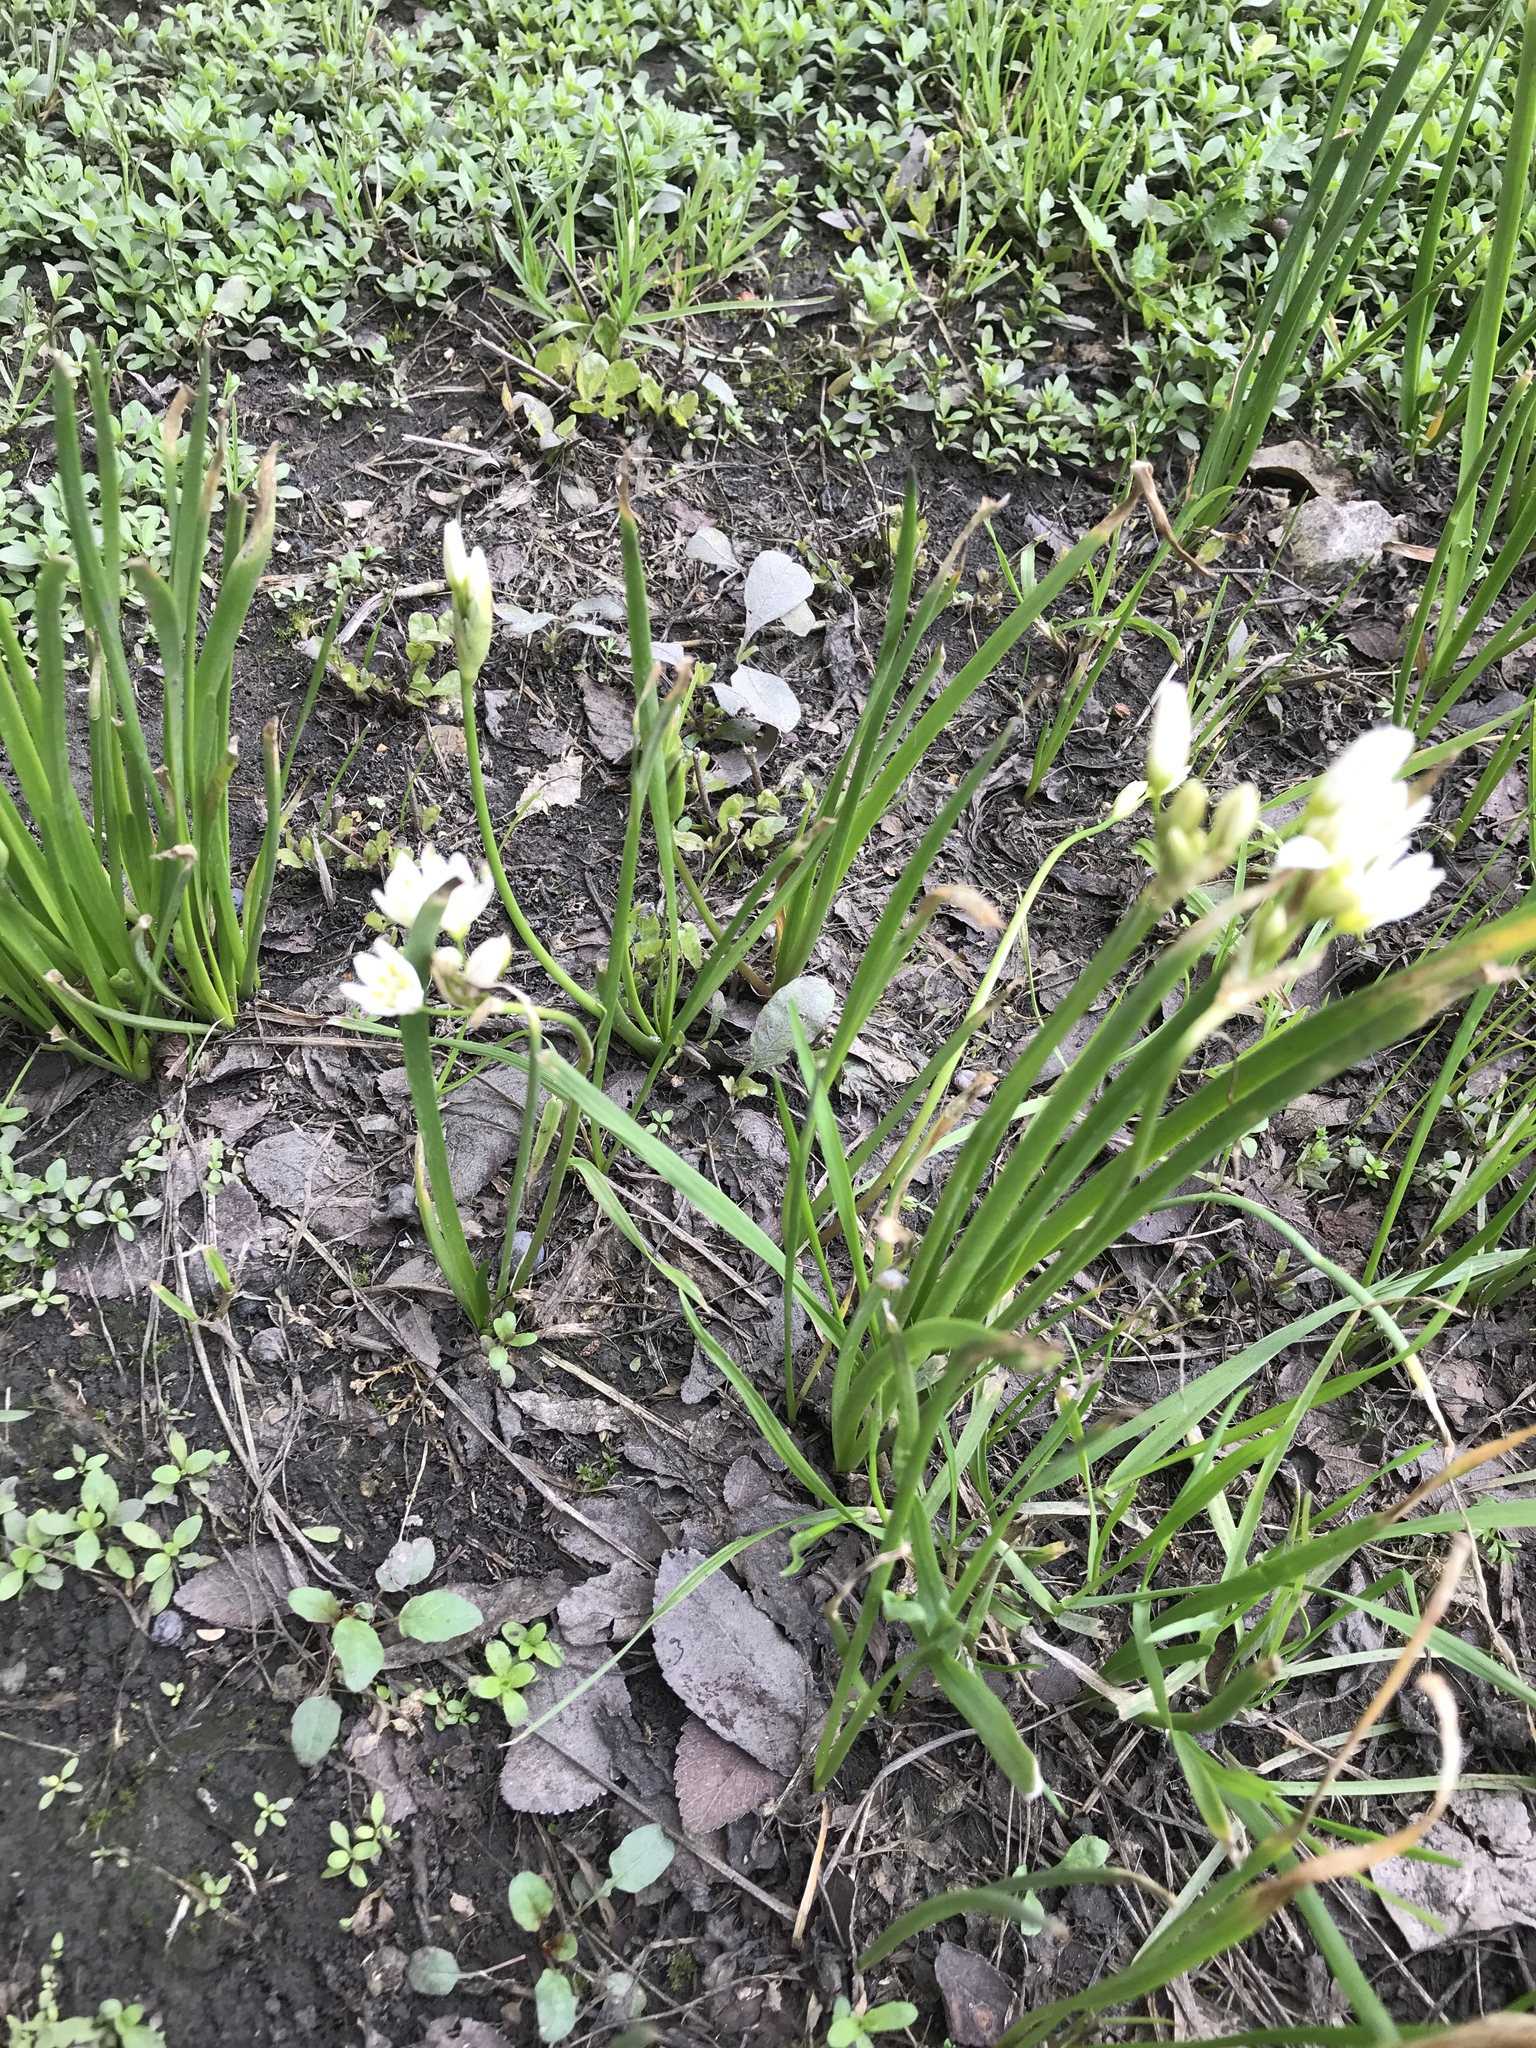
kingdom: Plantae
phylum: Tracheophyta
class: Liliopsida
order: Asparagales
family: Amaryllidaceae
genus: Nothoscordum
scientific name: Nothoscordum bivalve
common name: Crow-poison
